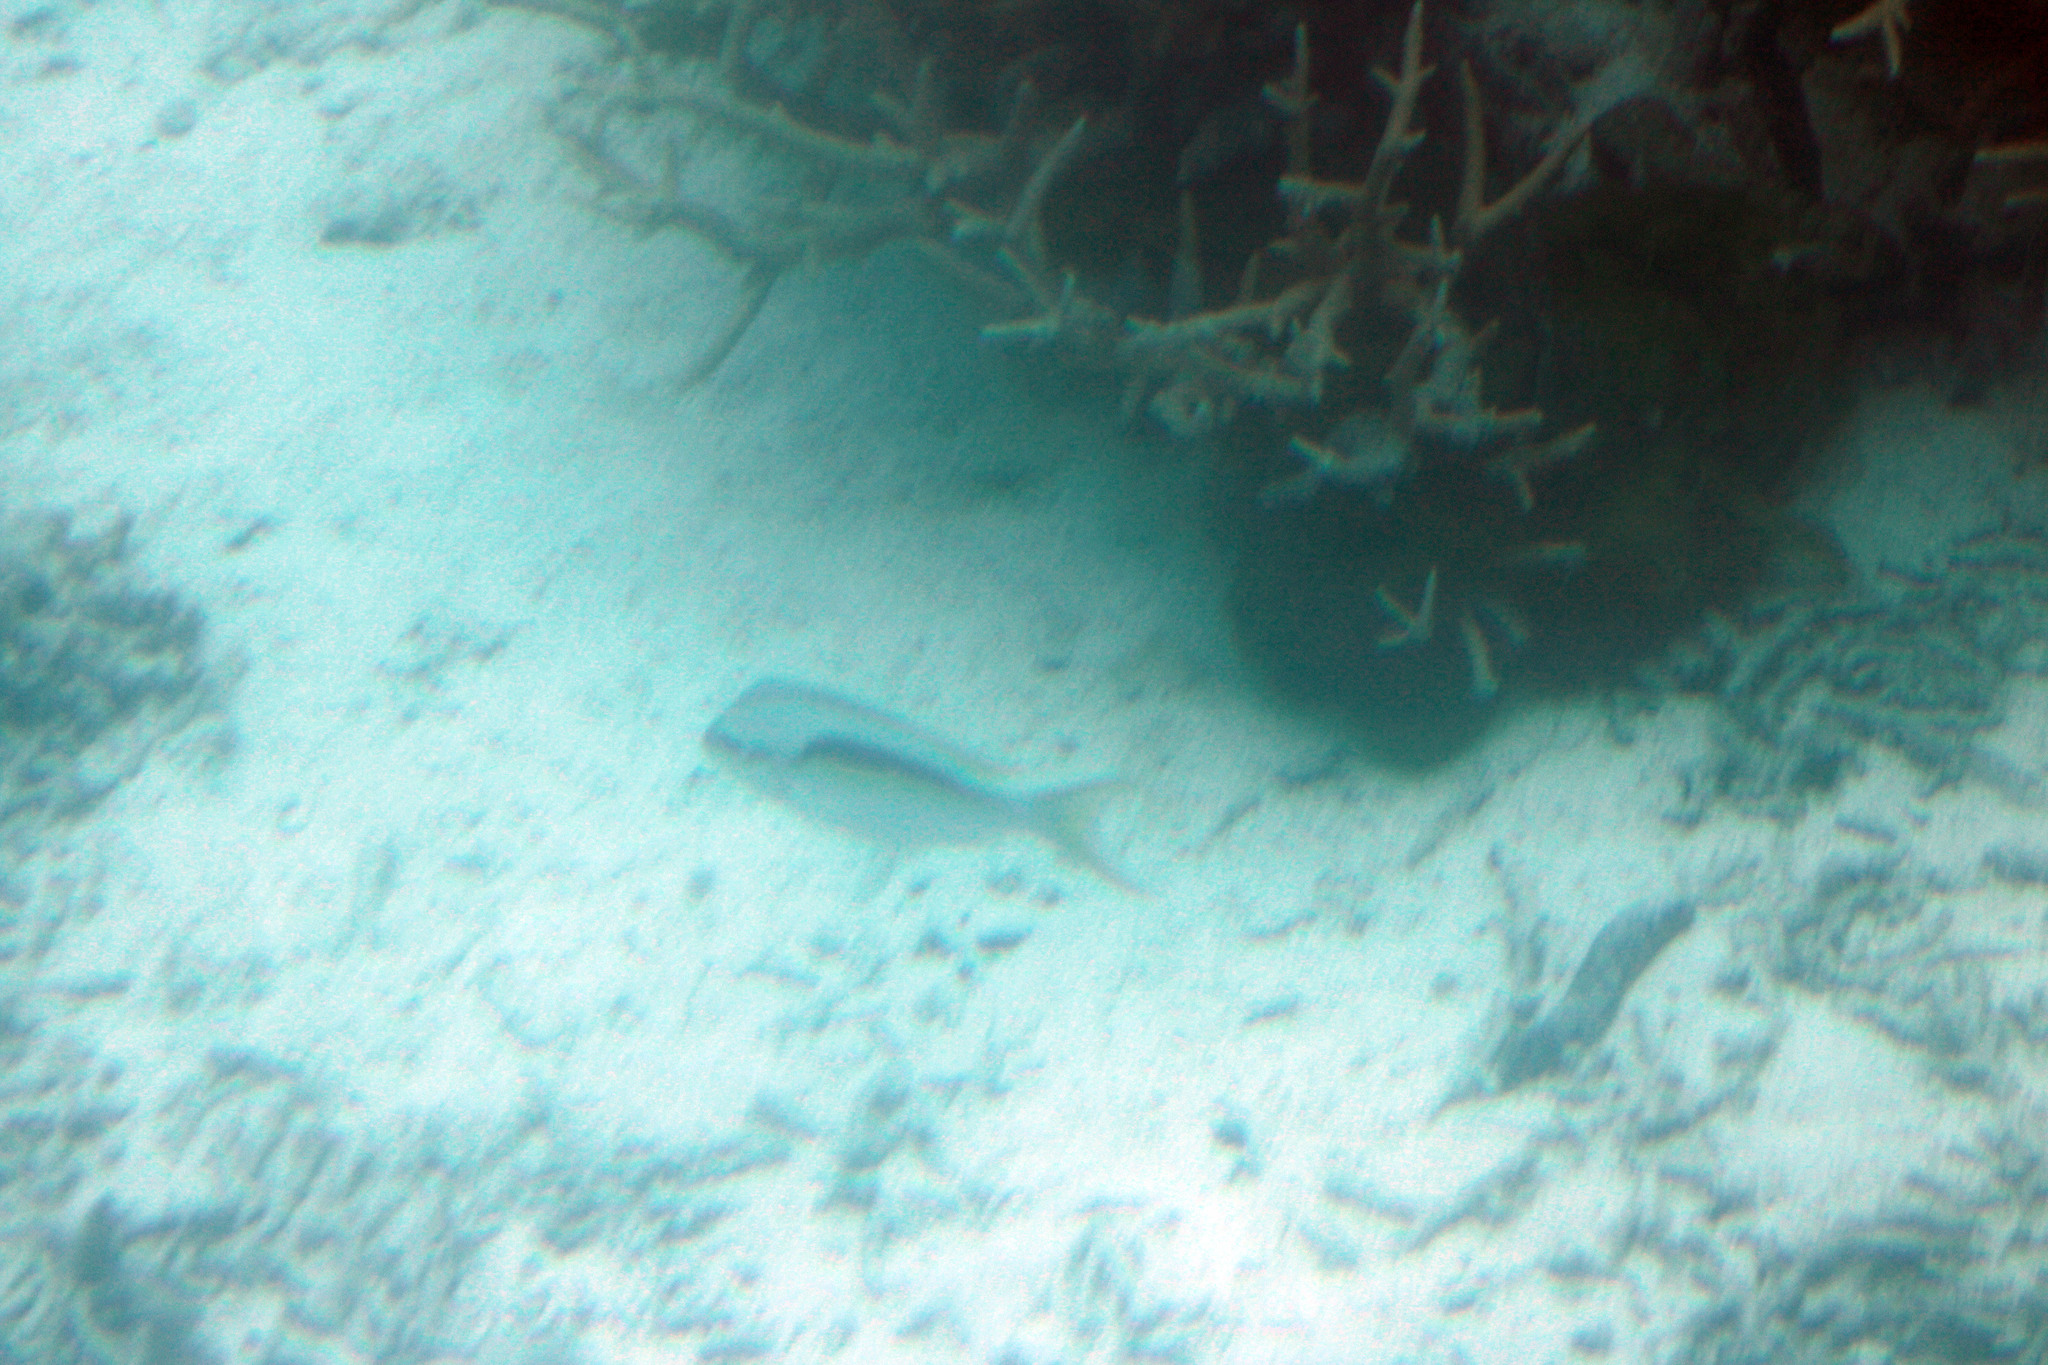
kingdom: Animalia
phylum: Chordata
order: Perciformes
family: Nemipteridae
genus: Scolopsis
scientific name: Scolopsis monogramma
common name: Monogrammed monocle bream
